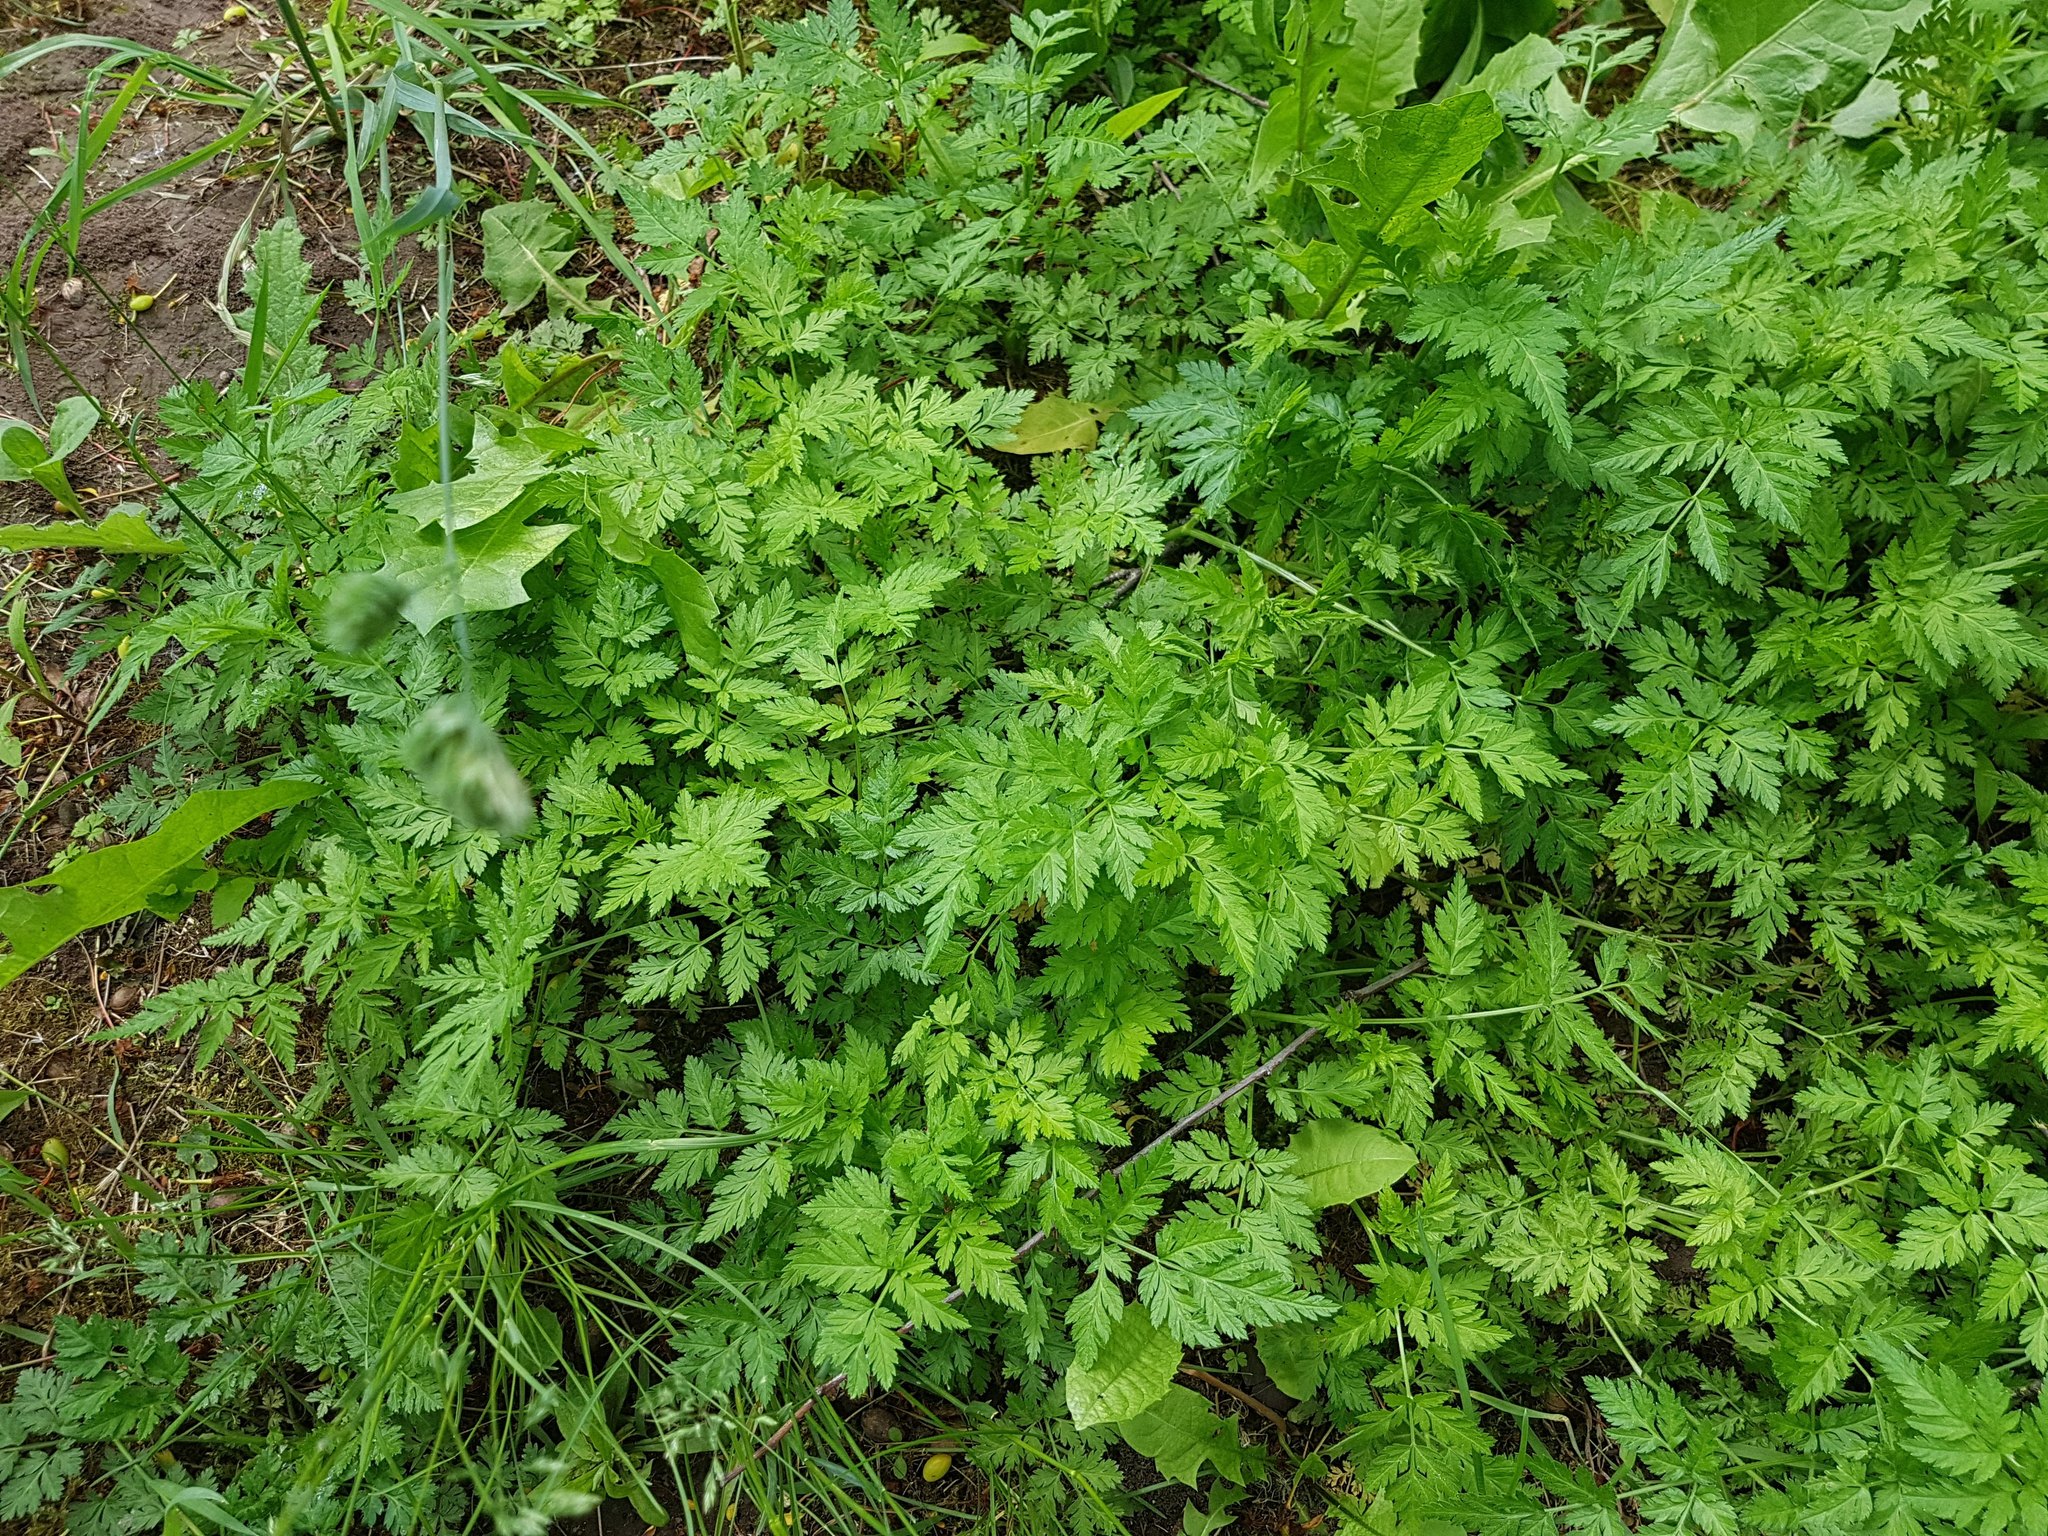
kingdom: Plantae
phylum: Tracheophyta
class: Magnoliopsida
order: Apiales
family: Apiaceae
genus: Anthriscus
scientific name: Anthriscus sylvestris
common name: Cow parsley
